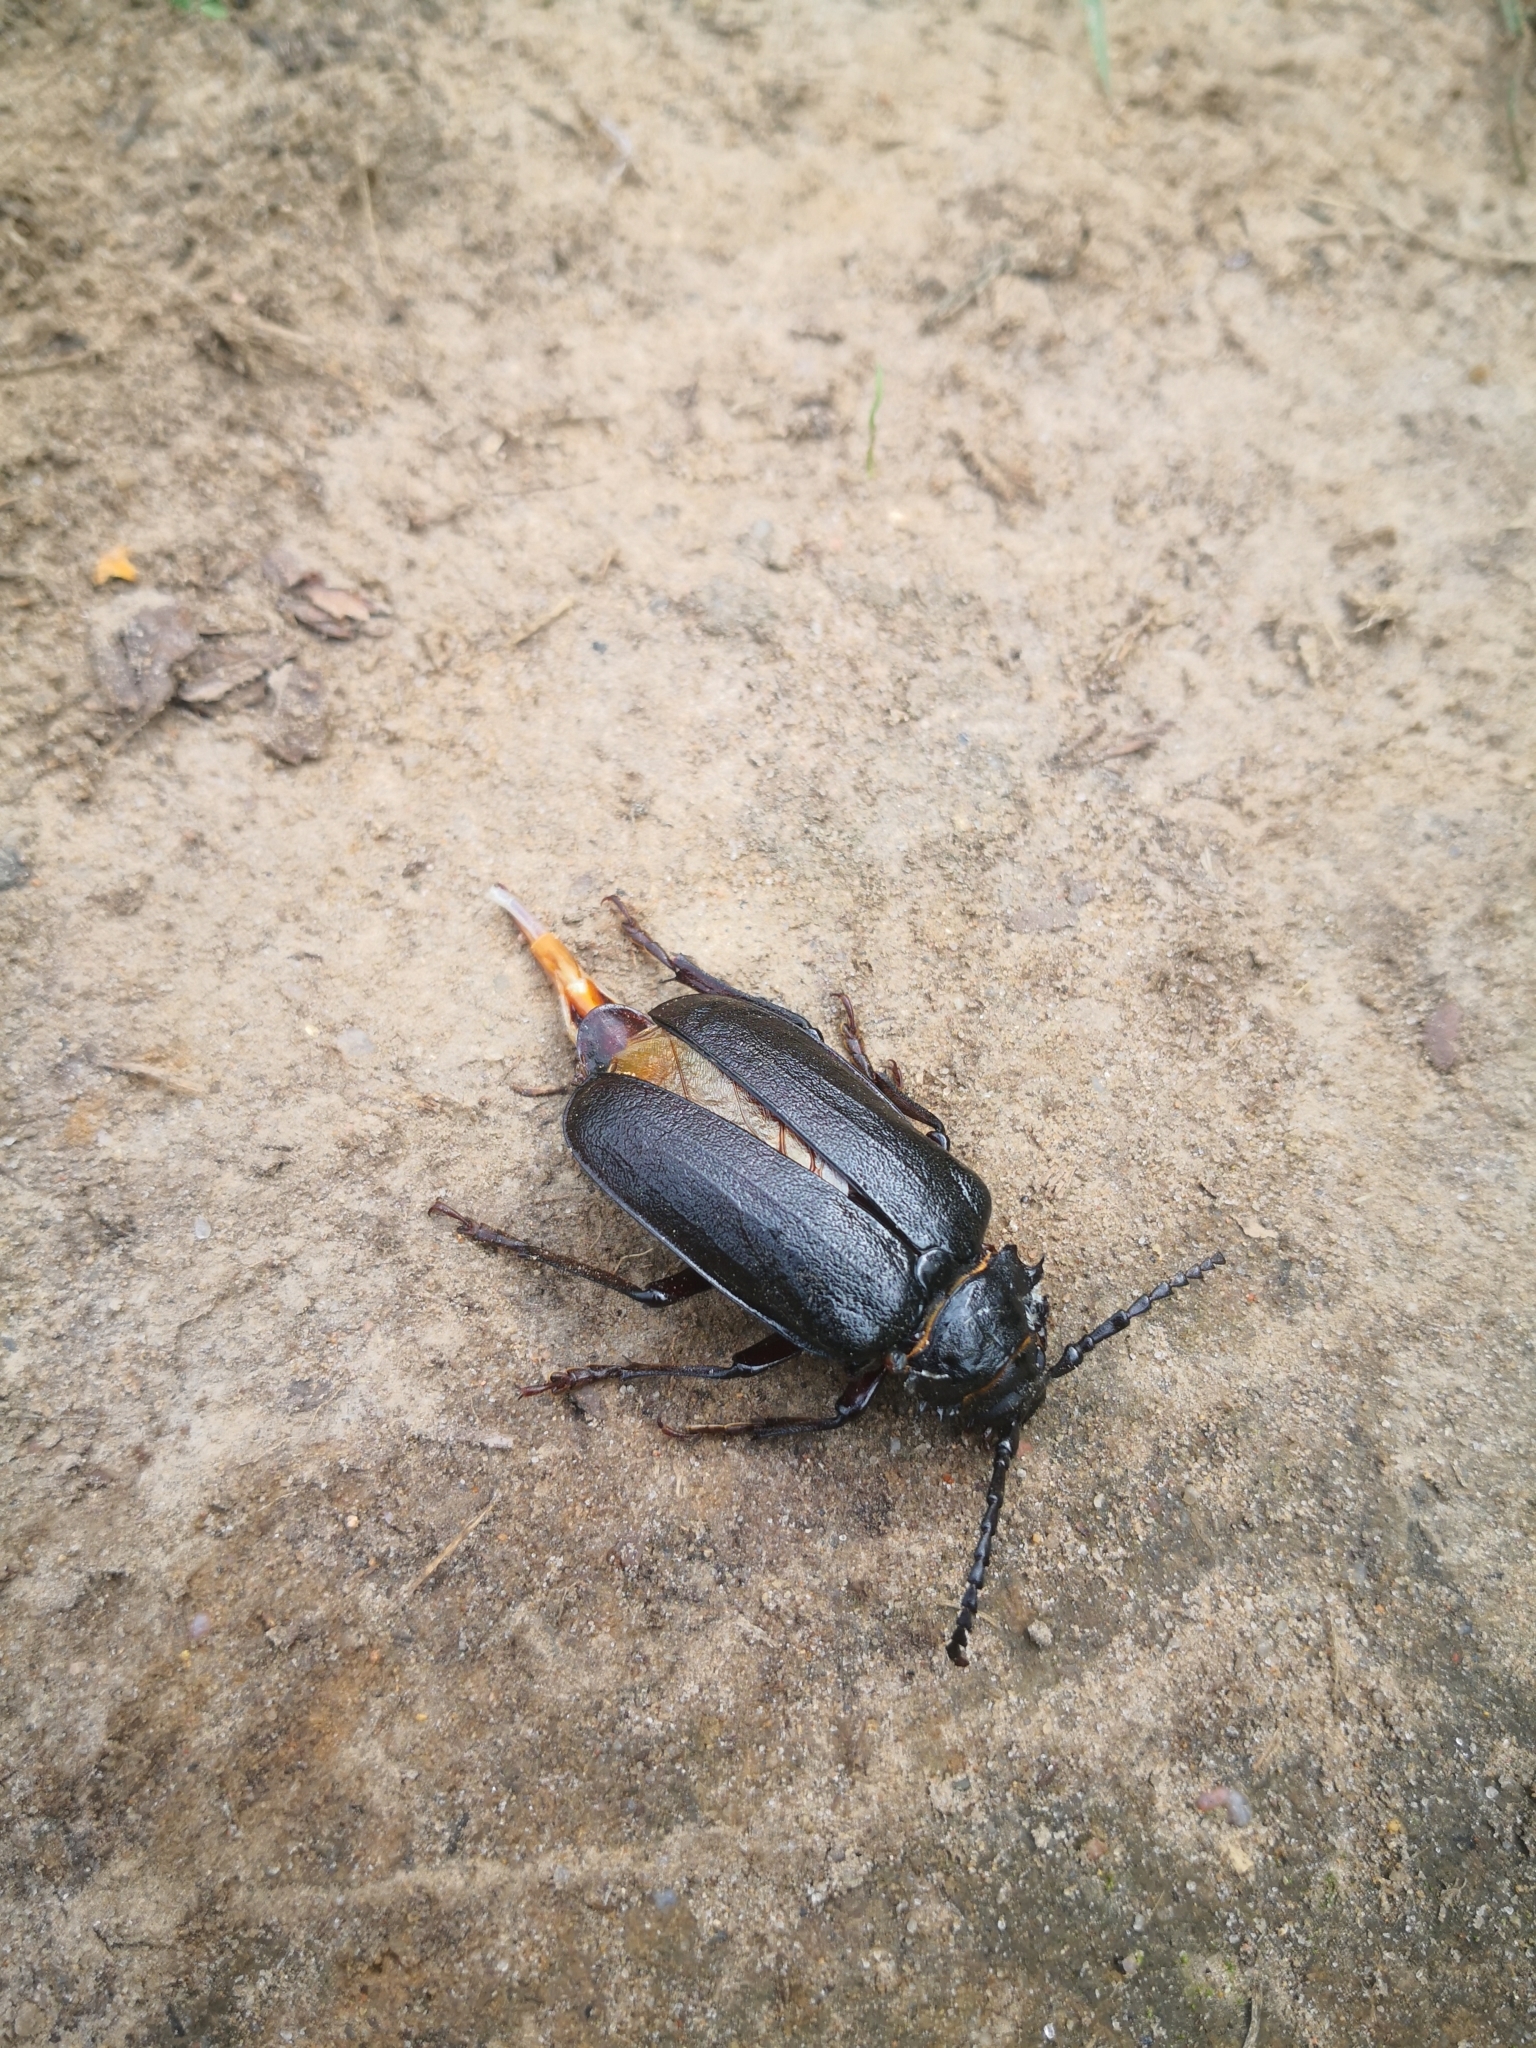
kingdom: Animalia
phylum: Arthropoda
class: Insecta
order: Coleoptera
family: Cerambycidae
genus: Prionus
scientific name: Prionus coriarius
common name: Tanner beetle
